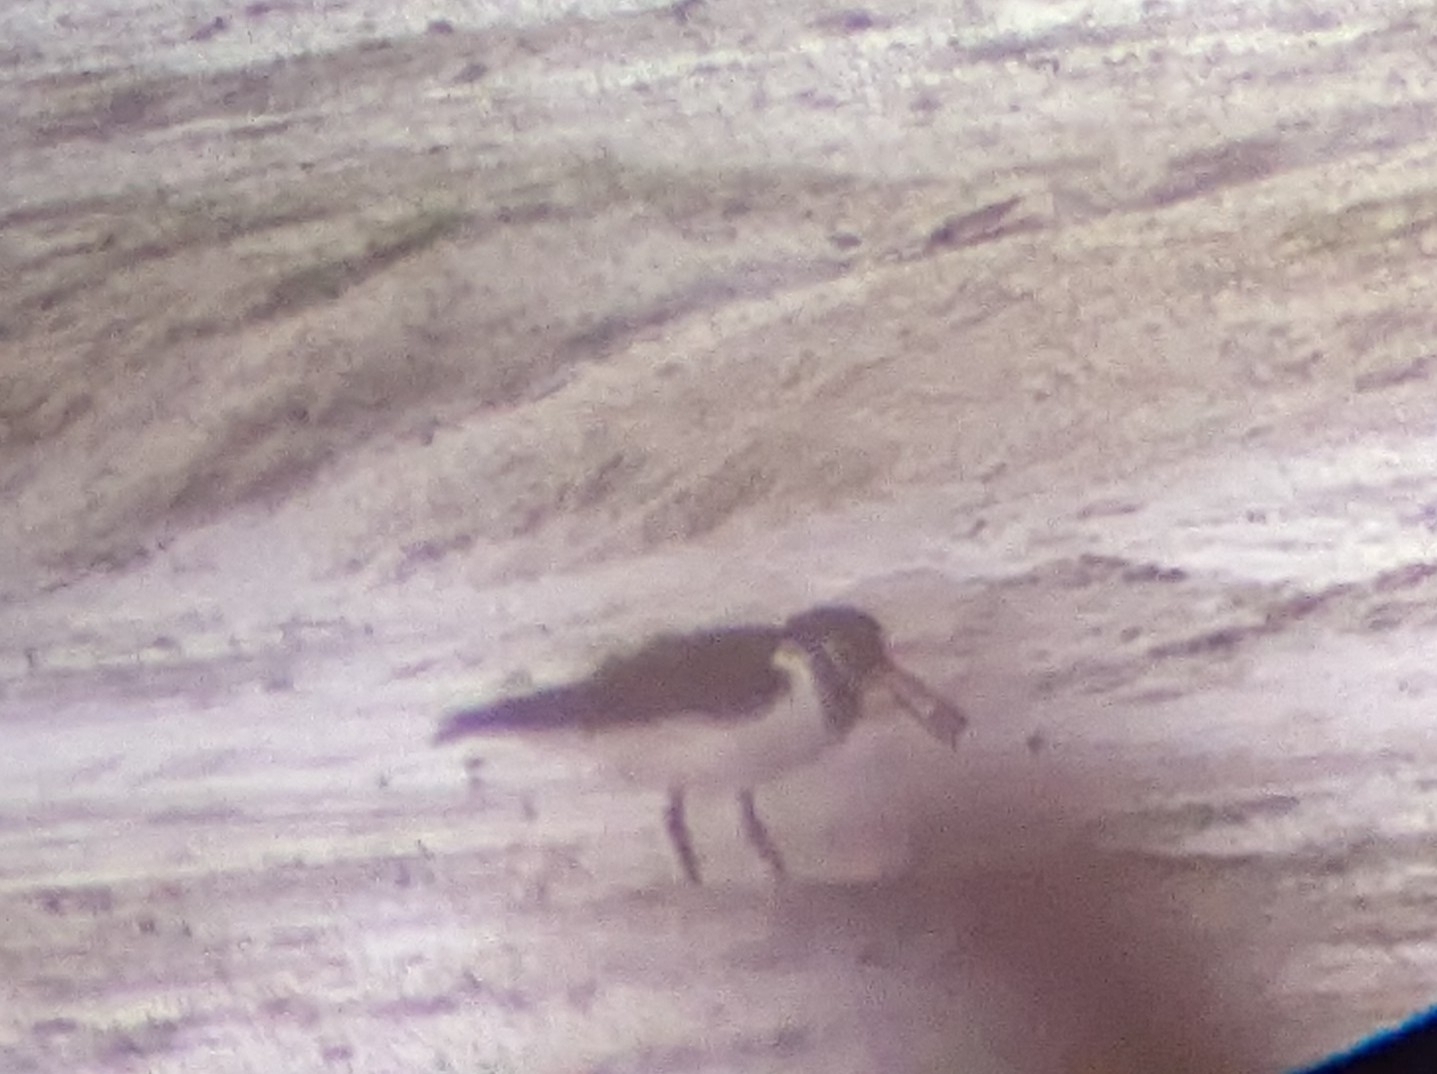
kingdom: Animalia
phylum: Chordata
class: Aves
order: Charadriiformes
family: Haematopodidae
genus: Haematopus
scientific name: Haematopus ostralegus
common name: Eurasian oystercatcher
